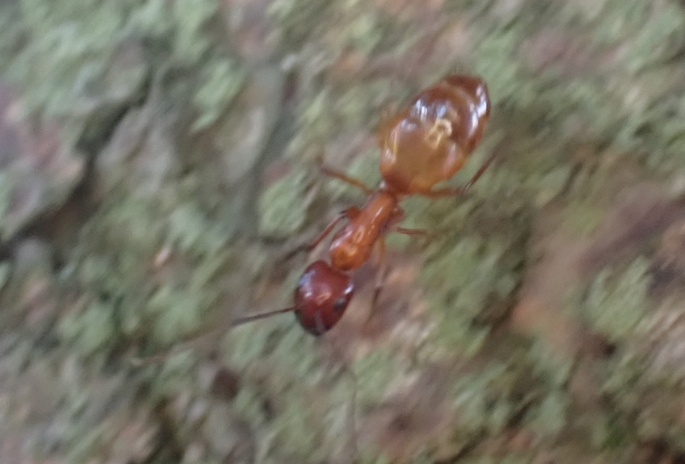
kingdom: Animalia
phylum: Arthropoda
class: Insecta
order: Hymenoptera
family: Formicidae
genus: Camponotus
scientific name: Camponotus castaneus
